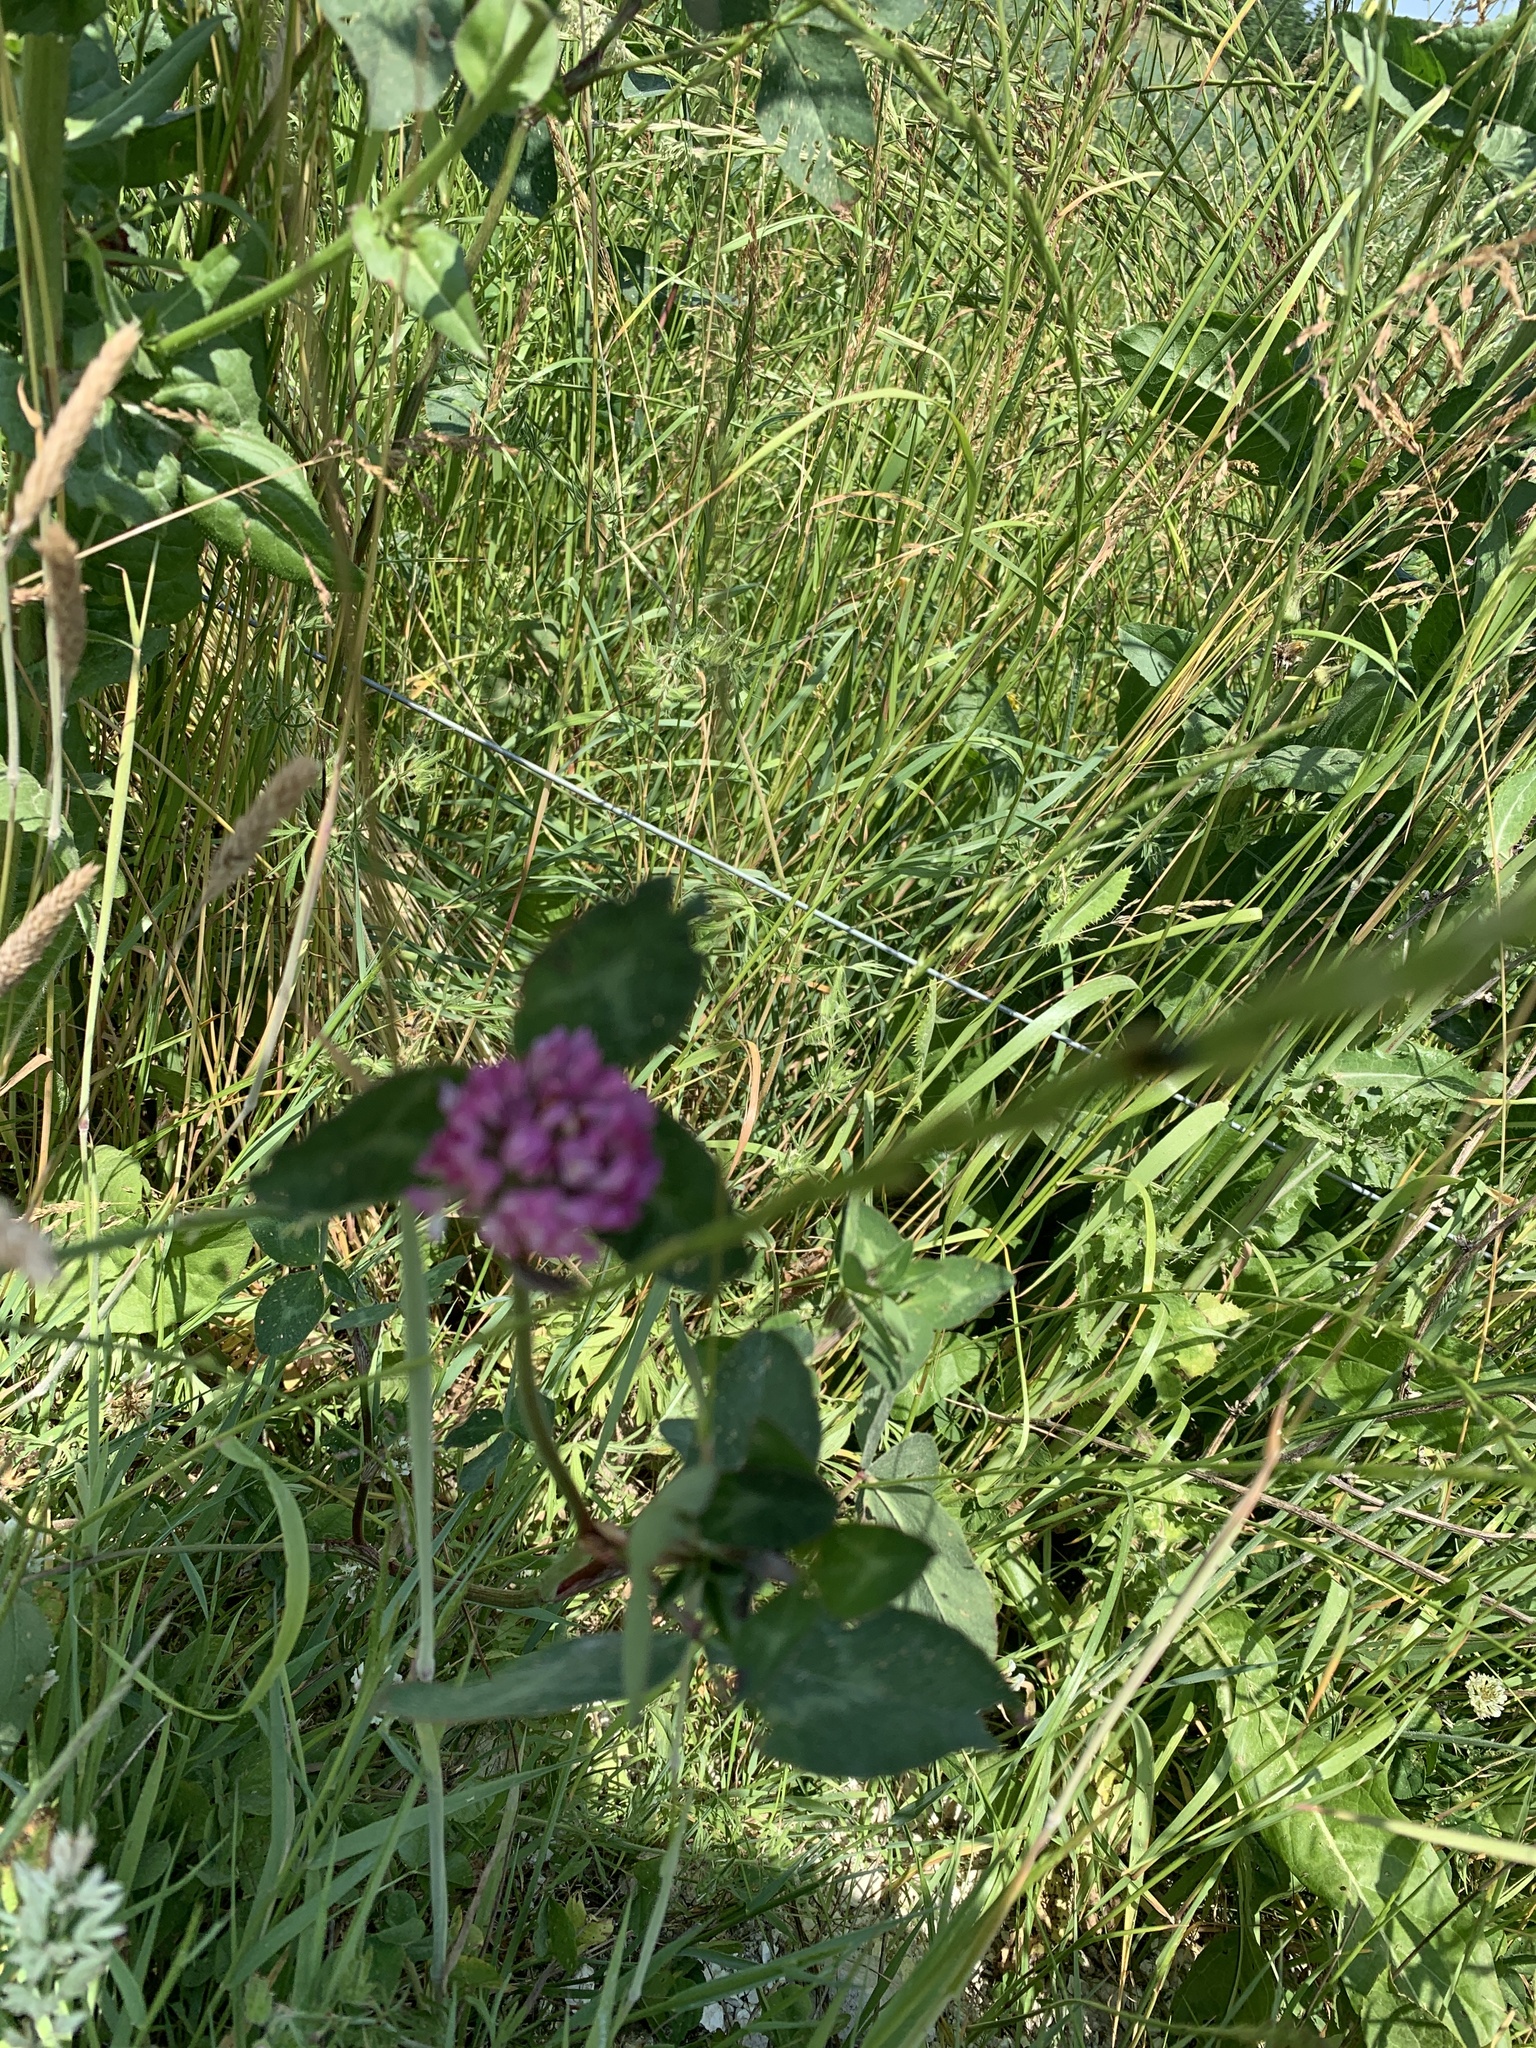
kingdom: Plantae
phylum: Tracheophyta
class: Magnoliopsida
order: Fabales
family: Fabaceae
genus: Trifolium
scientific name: Trifolium pratense
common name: Red clover
